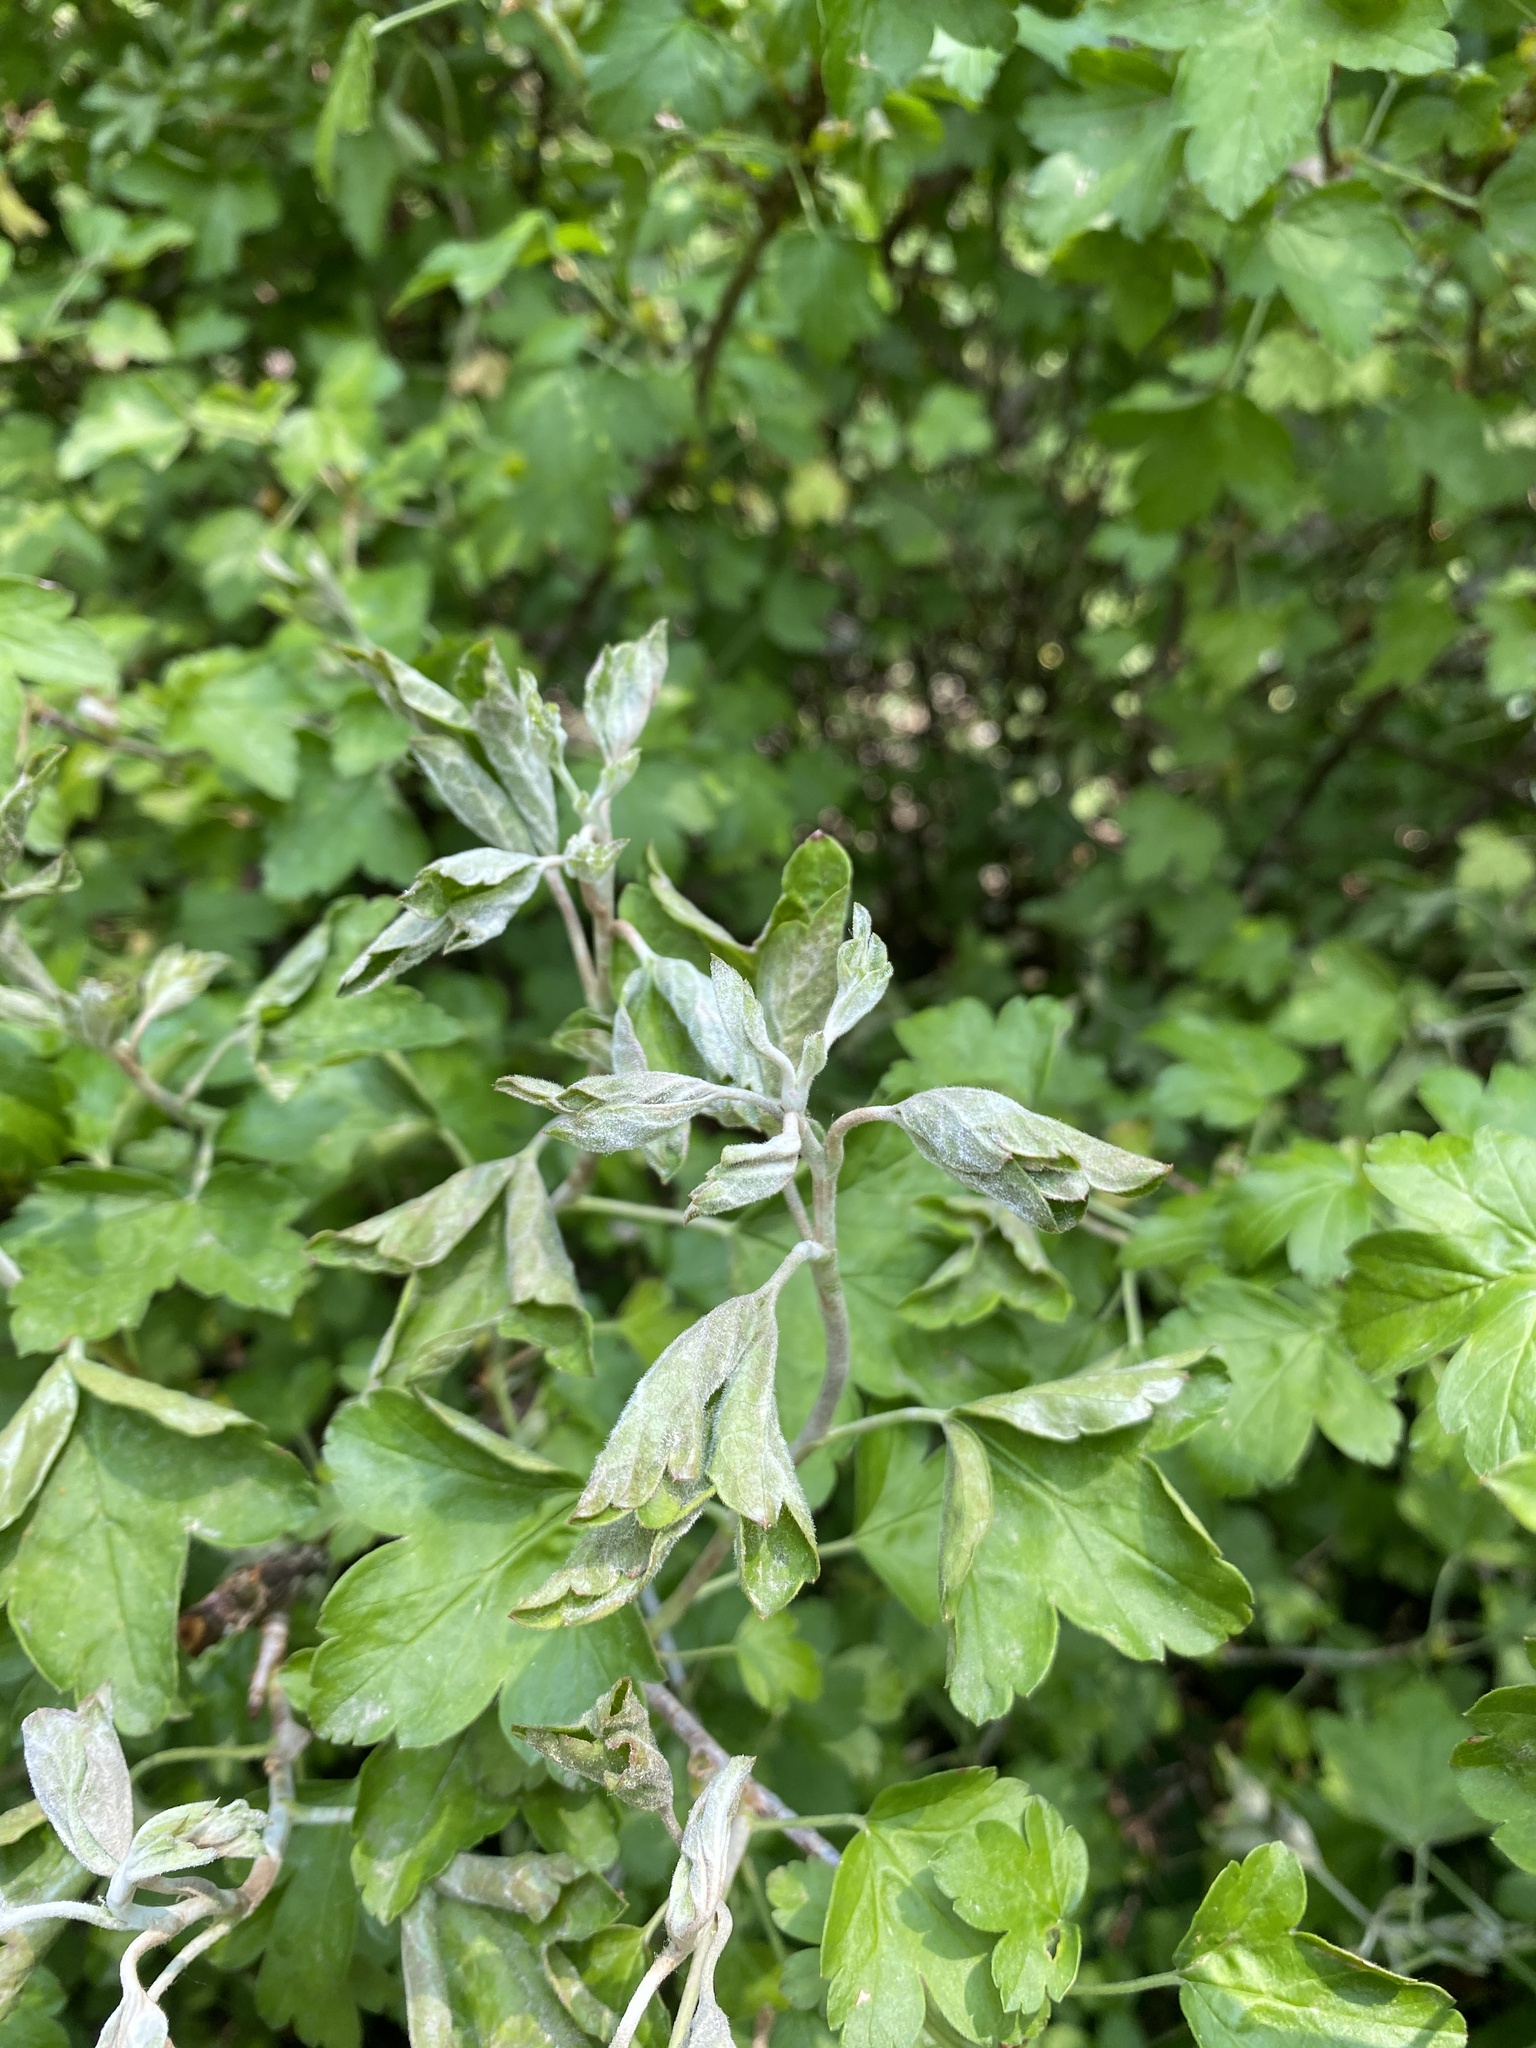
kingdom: Fungi
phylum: Ascomycota
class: Leotiomycetes
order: Helotiales
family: Erysiphaceae
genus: Podosphaera
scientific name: Podosphaera mors-uvae
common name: American gooseberry mildew
